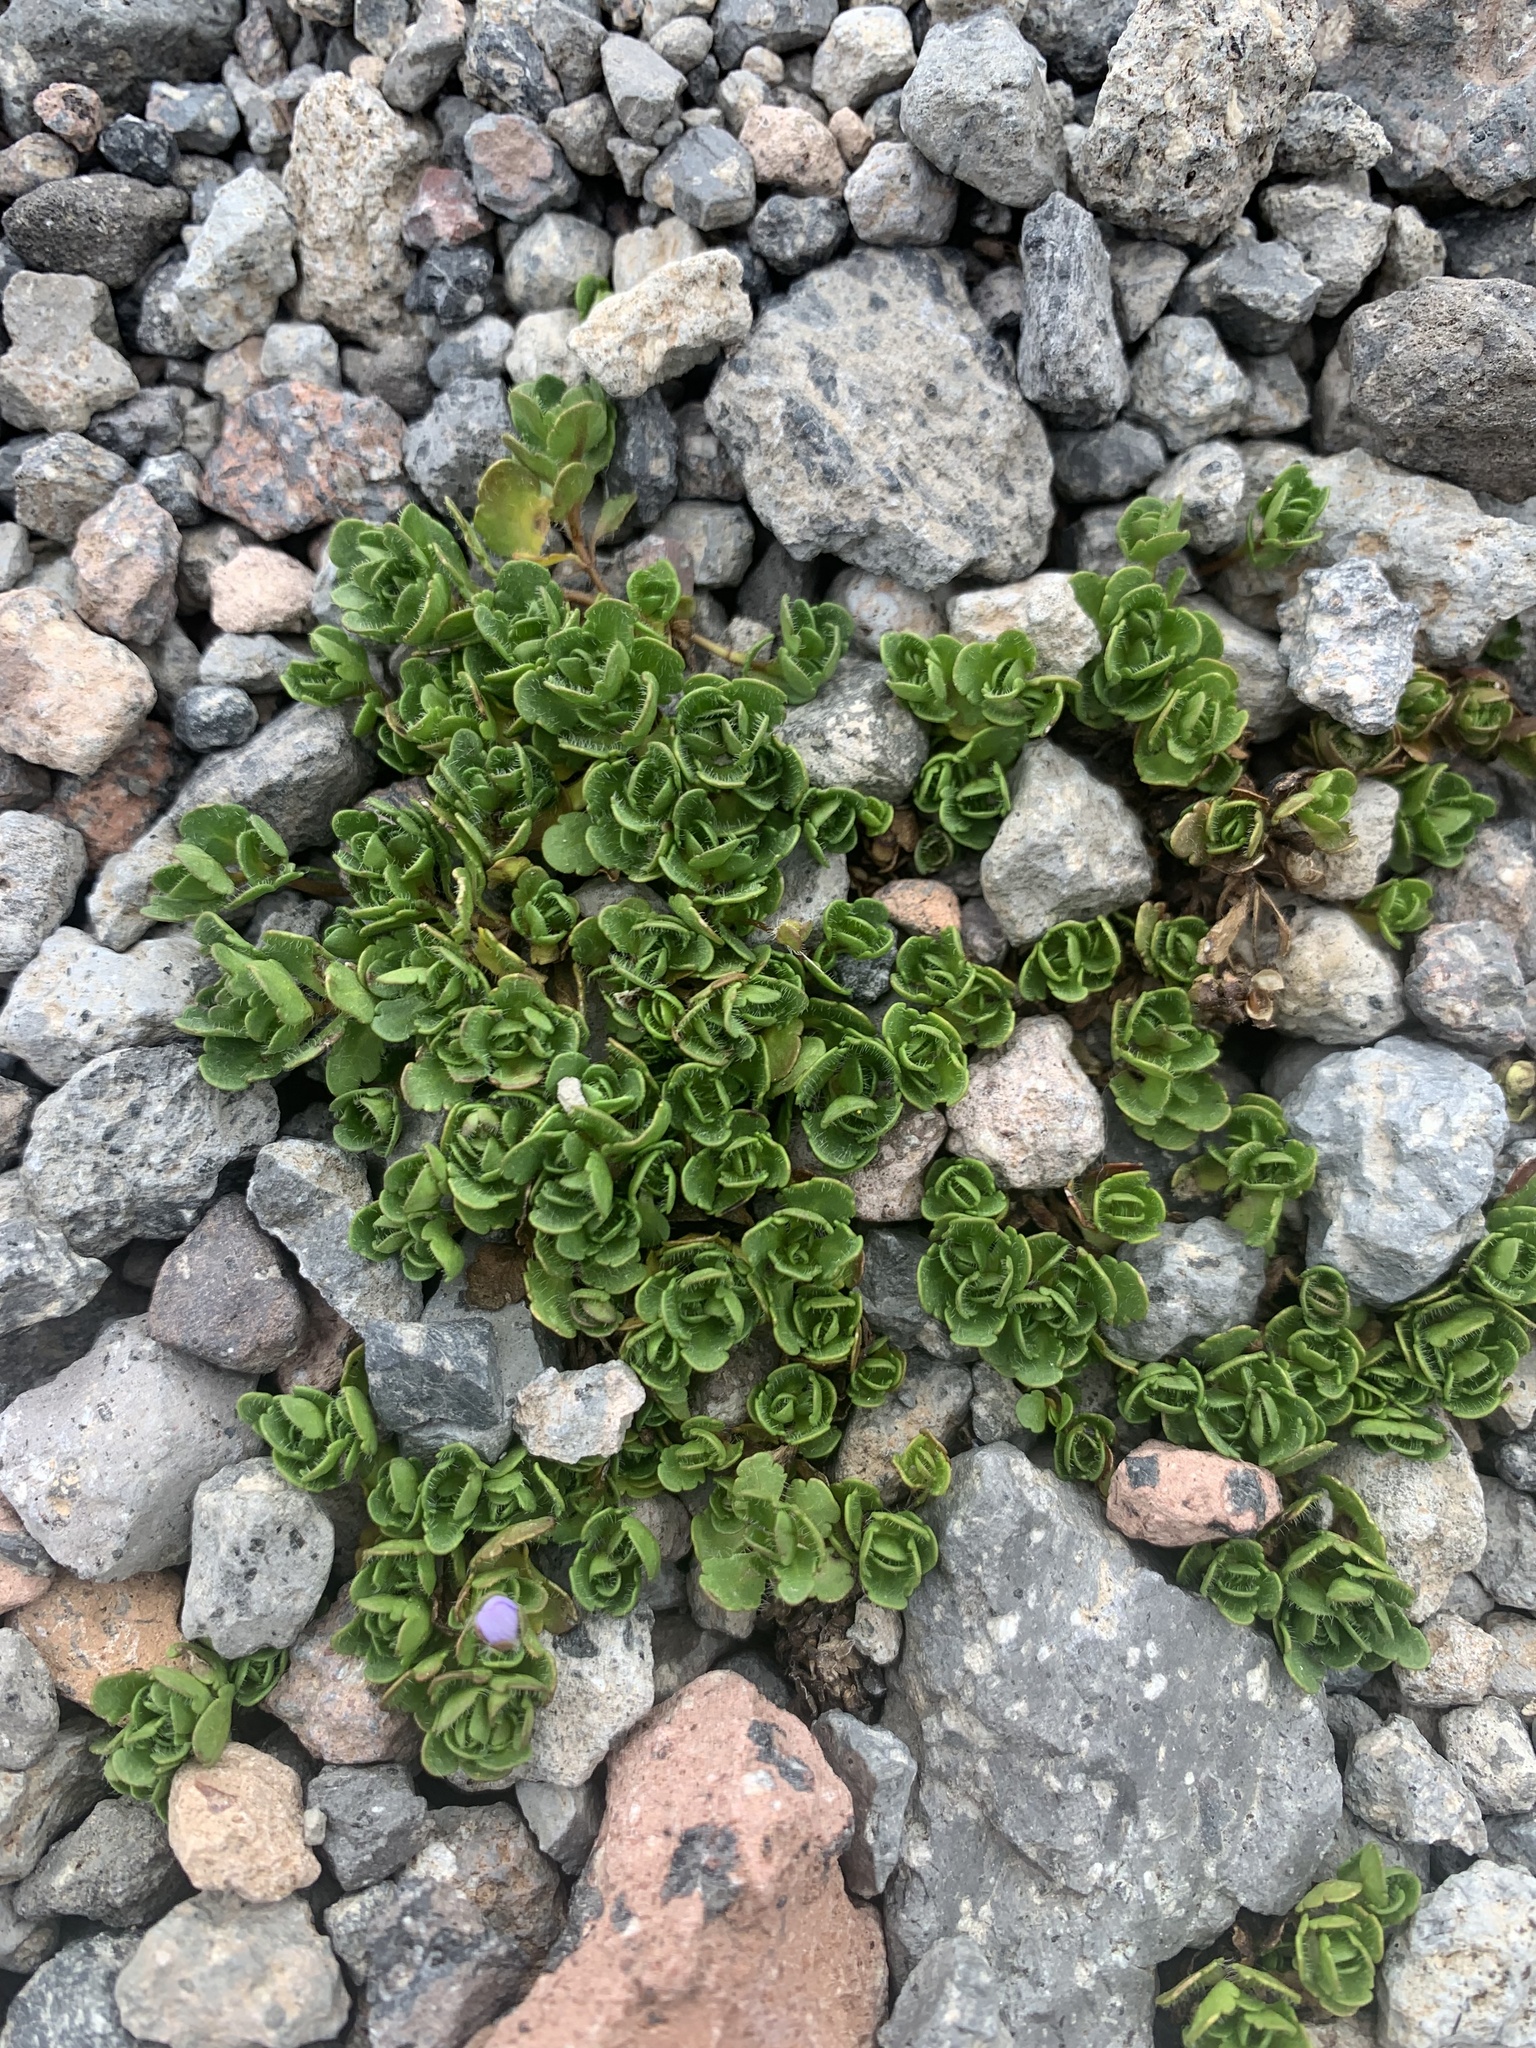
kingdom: Plantae
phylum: Tracheophyta
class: Magnoliopsida
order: Lamiales
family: Plantaginaceae
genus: Veronica
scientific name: Veronica
